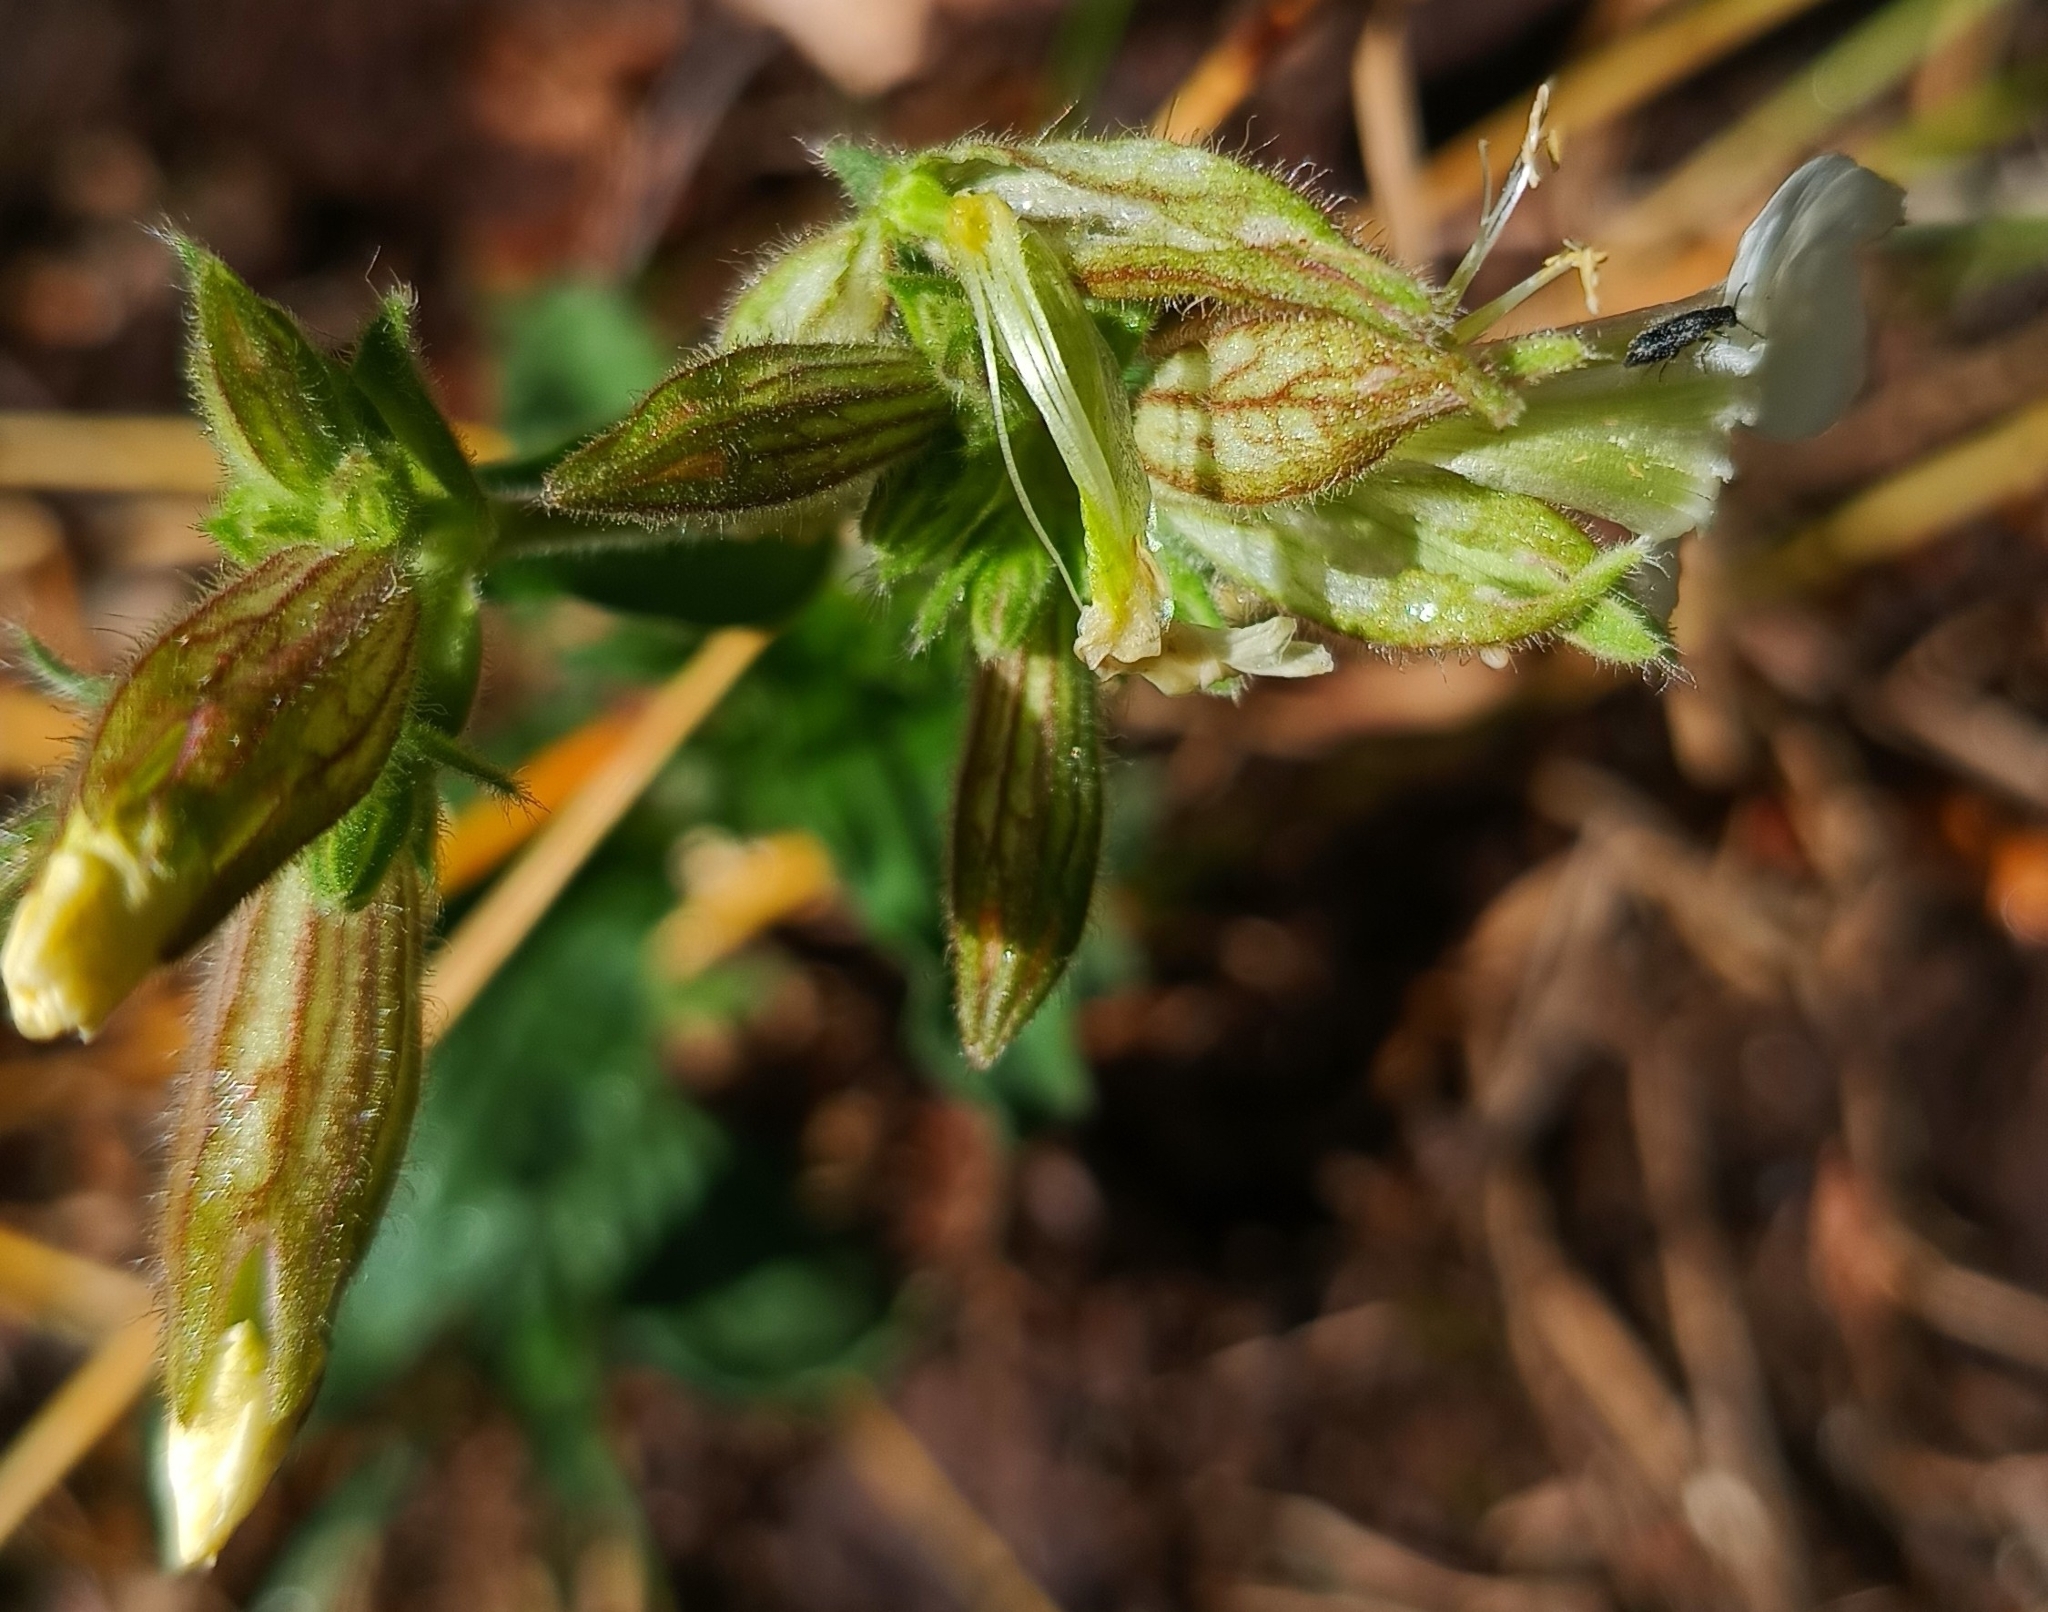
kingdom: Plantae
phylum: Tracheophyta
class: Magnoliopsida
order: Caryophyllales
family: Caryophyllaceae
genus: Silene
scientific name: Silene latifolia
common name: White campion
